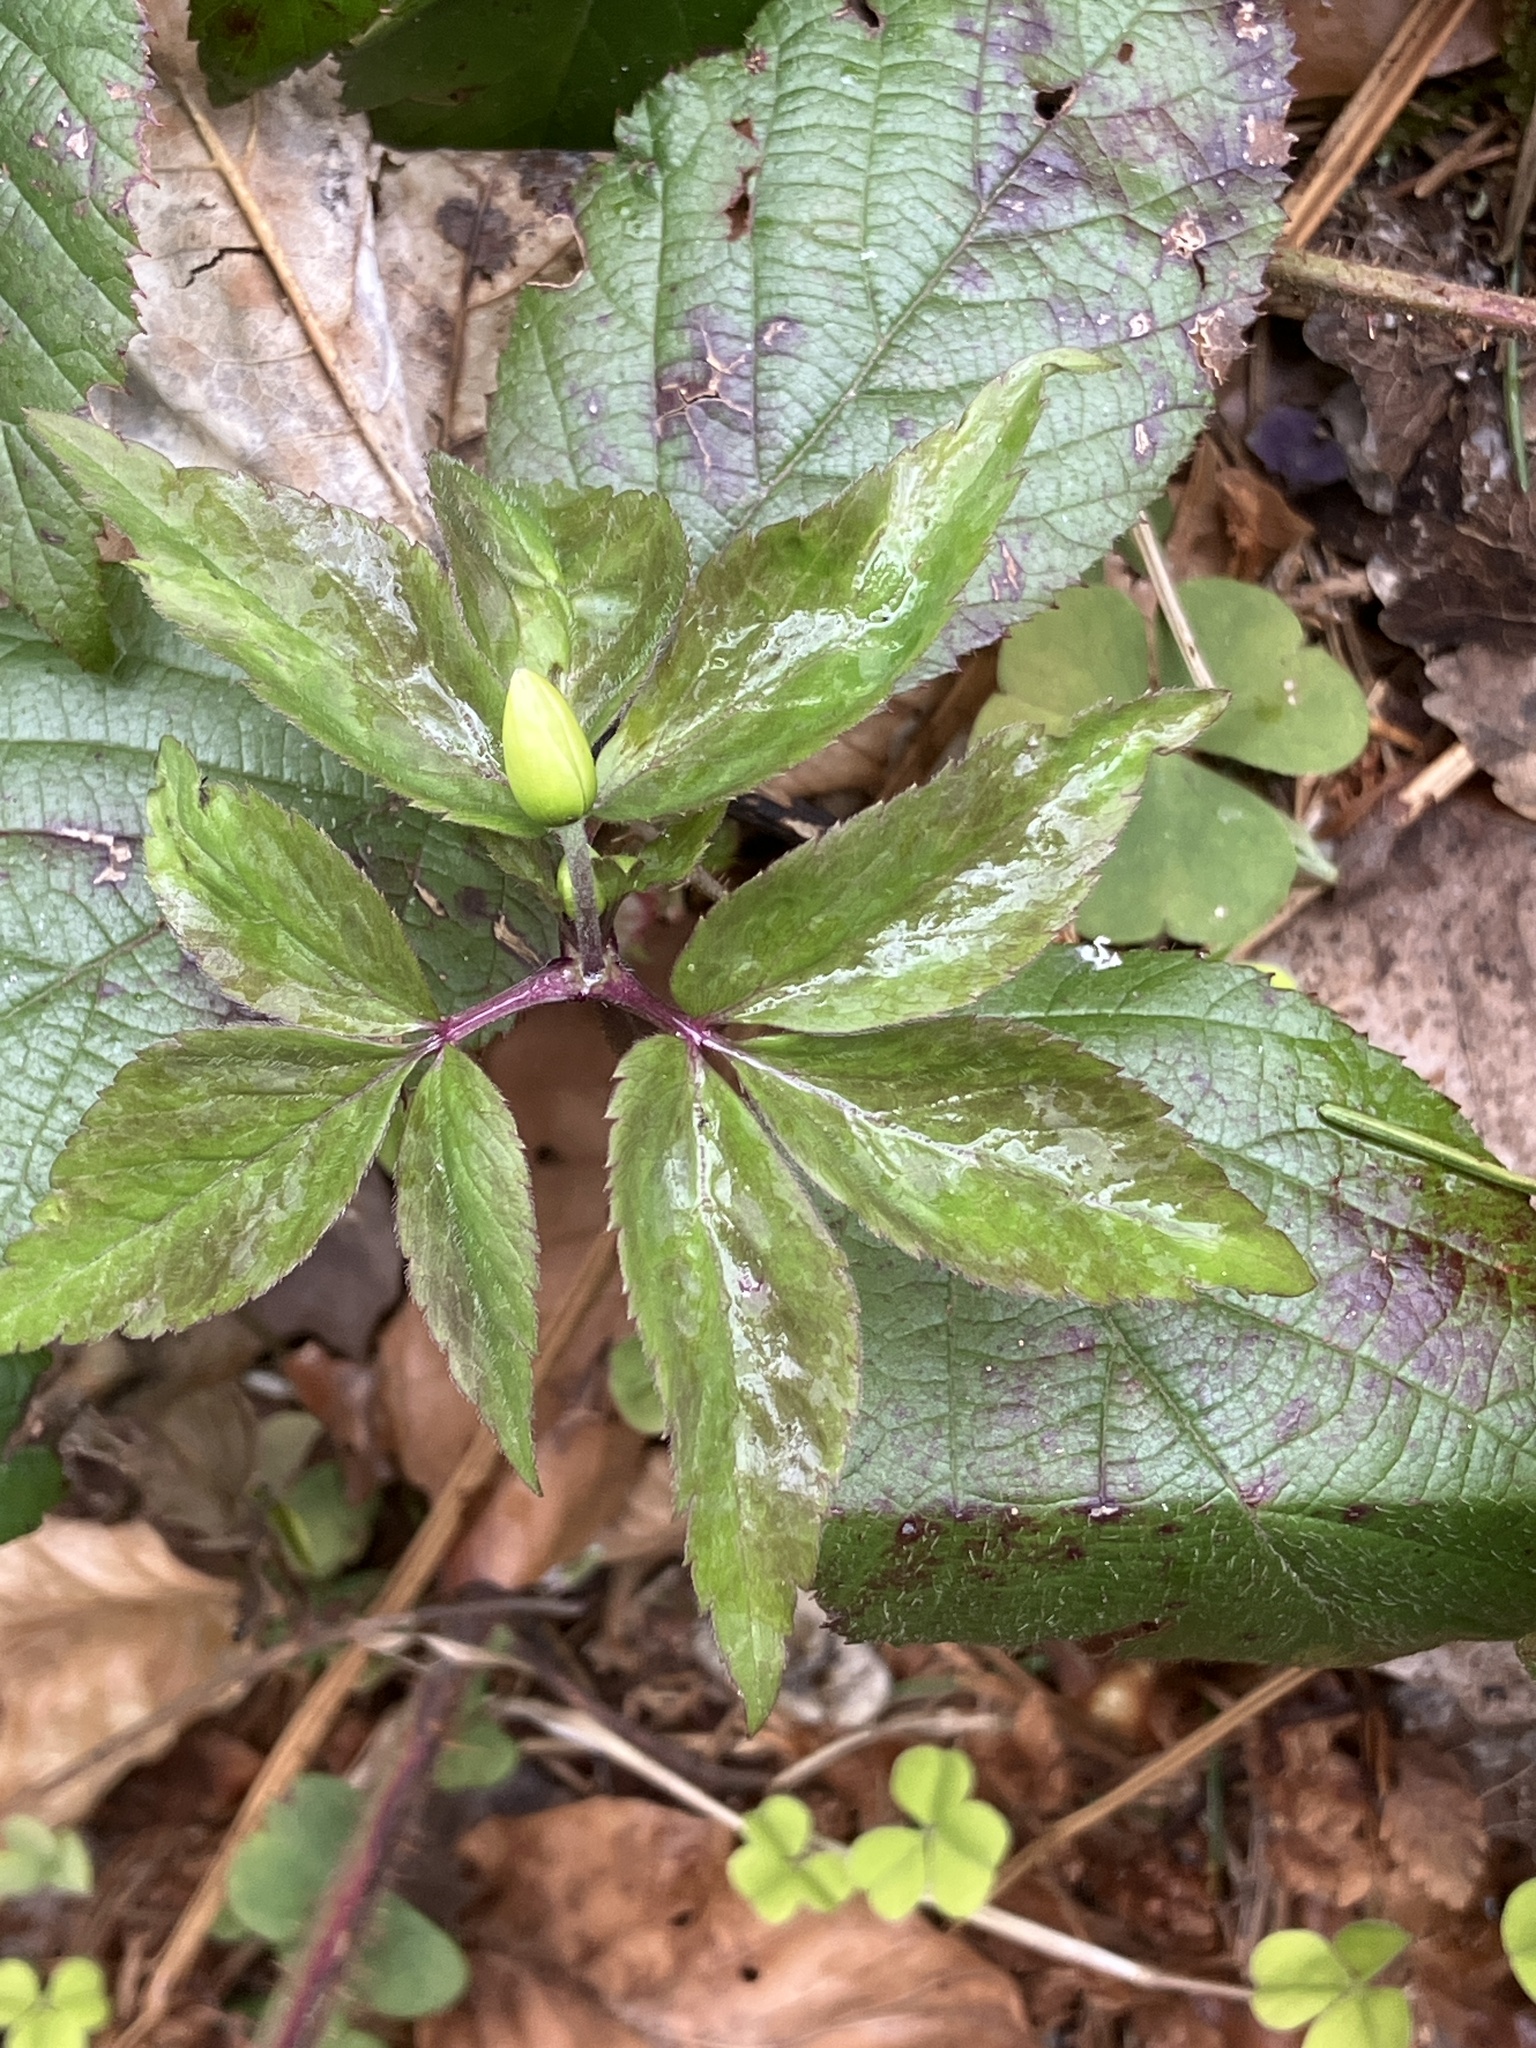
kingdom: Plantae
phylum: Tracheophyta
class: Magnoliopsida
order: Ranunculales
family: Ranunculaceae
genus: Anemone
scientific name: Anemone trifolia
